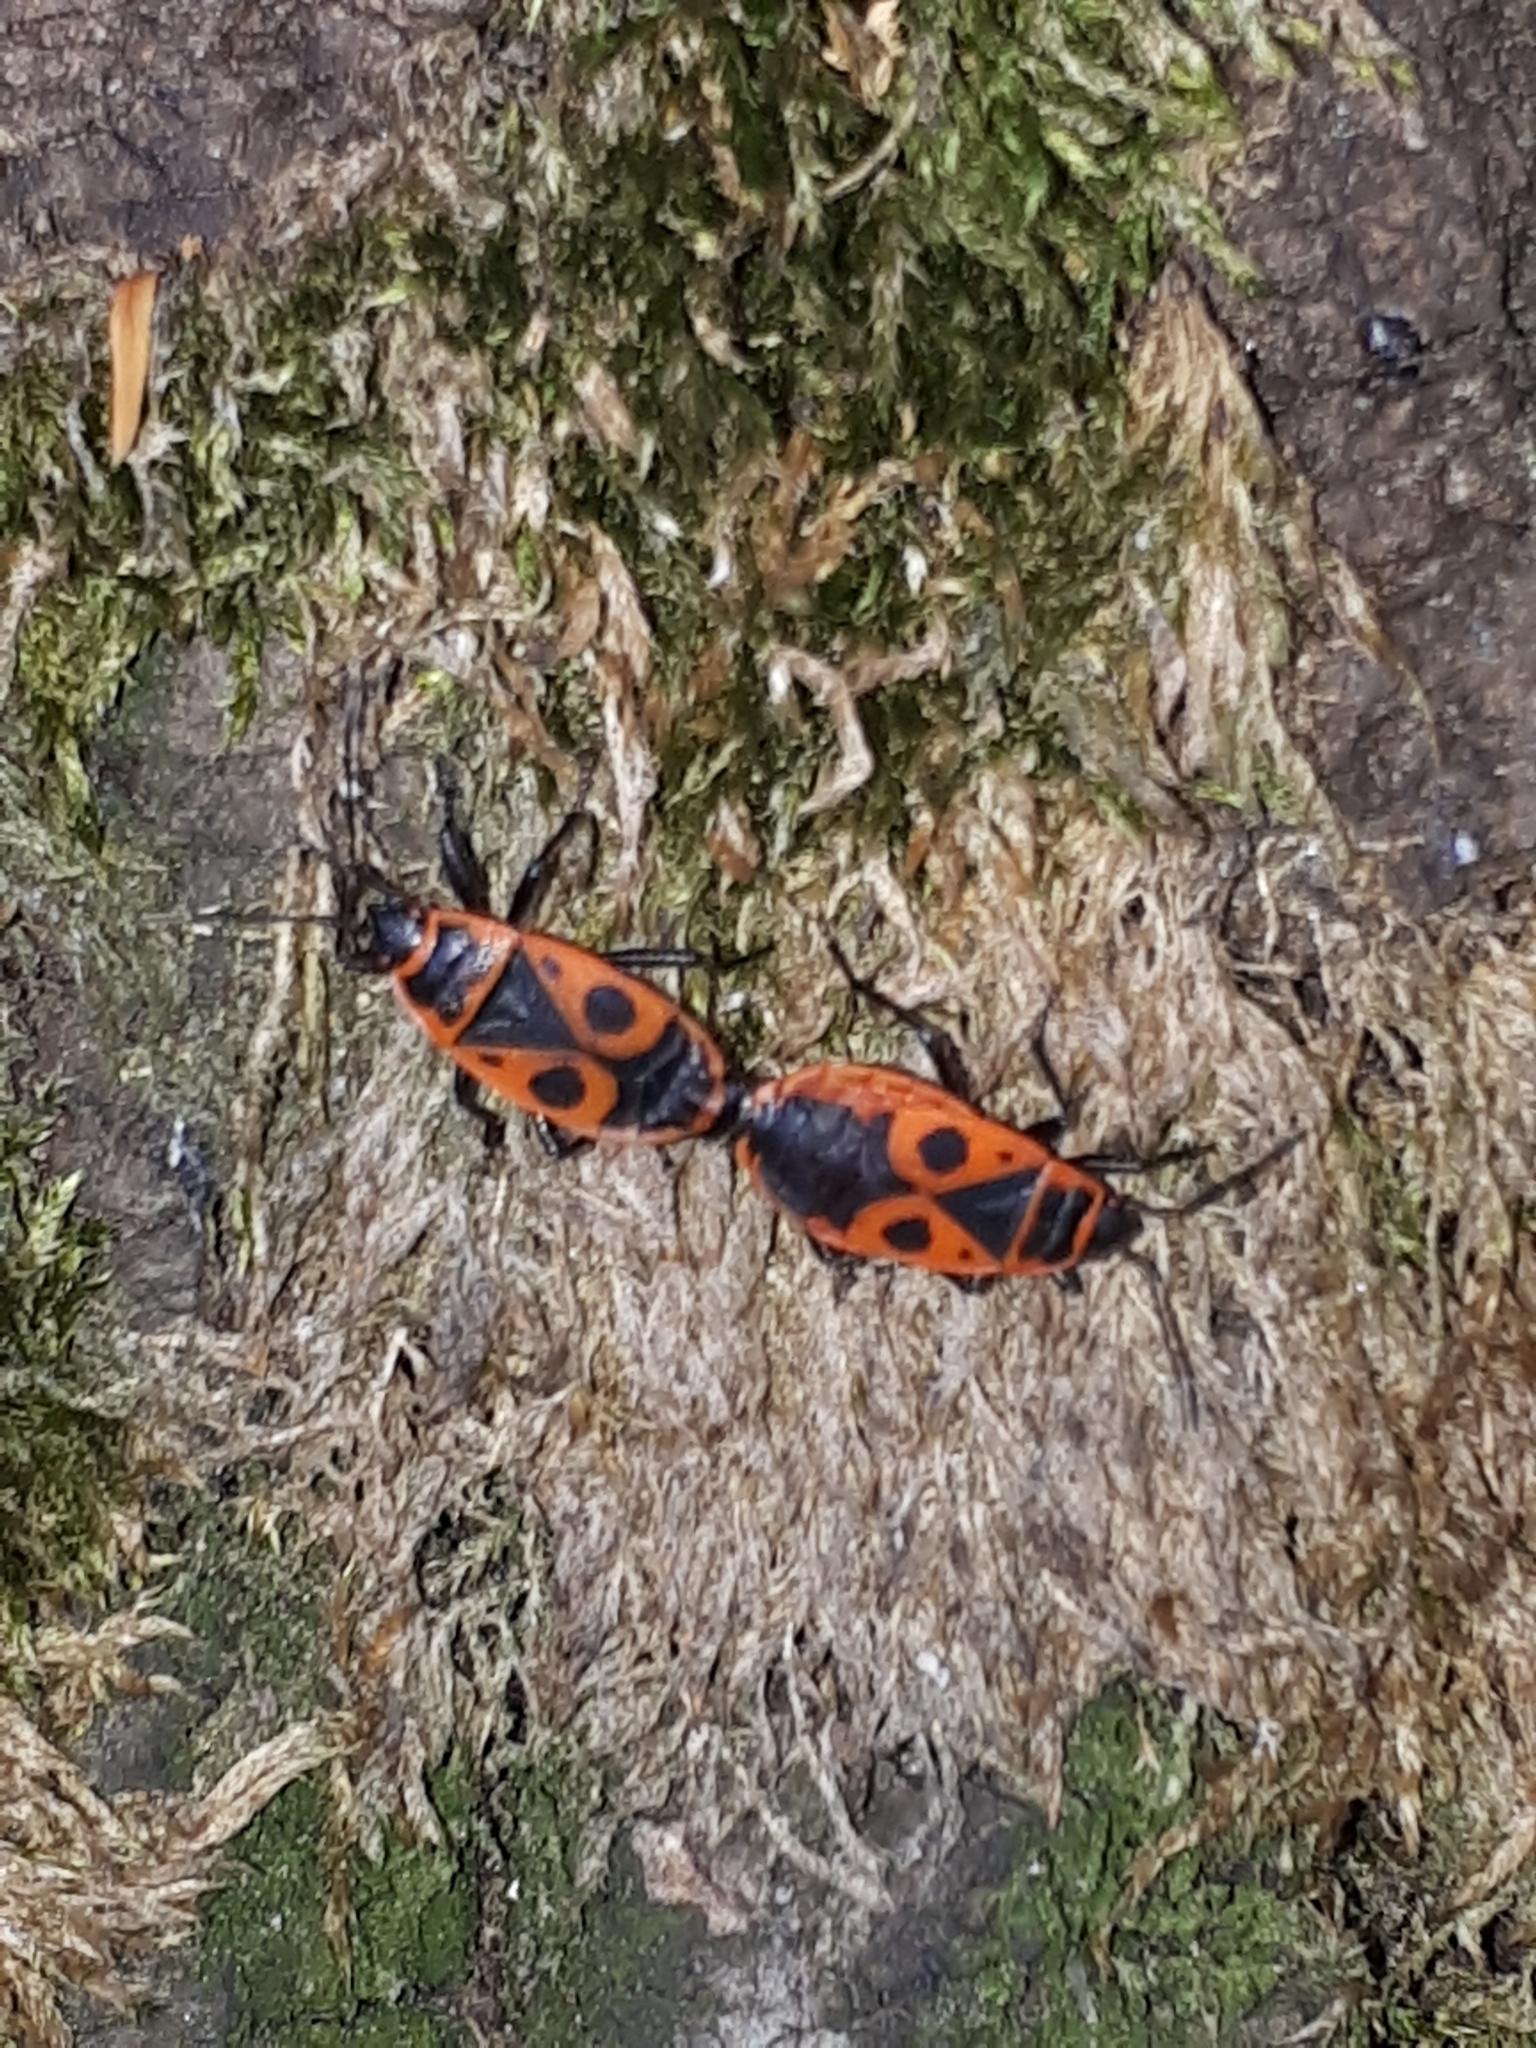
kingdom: Animalia
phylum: Arthropoda
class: Insecta
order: Hemiptera
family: Pyrrhocoridae
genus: Pyrrhocoris
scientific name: Pyrrhocoris apterus
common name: Firebug
